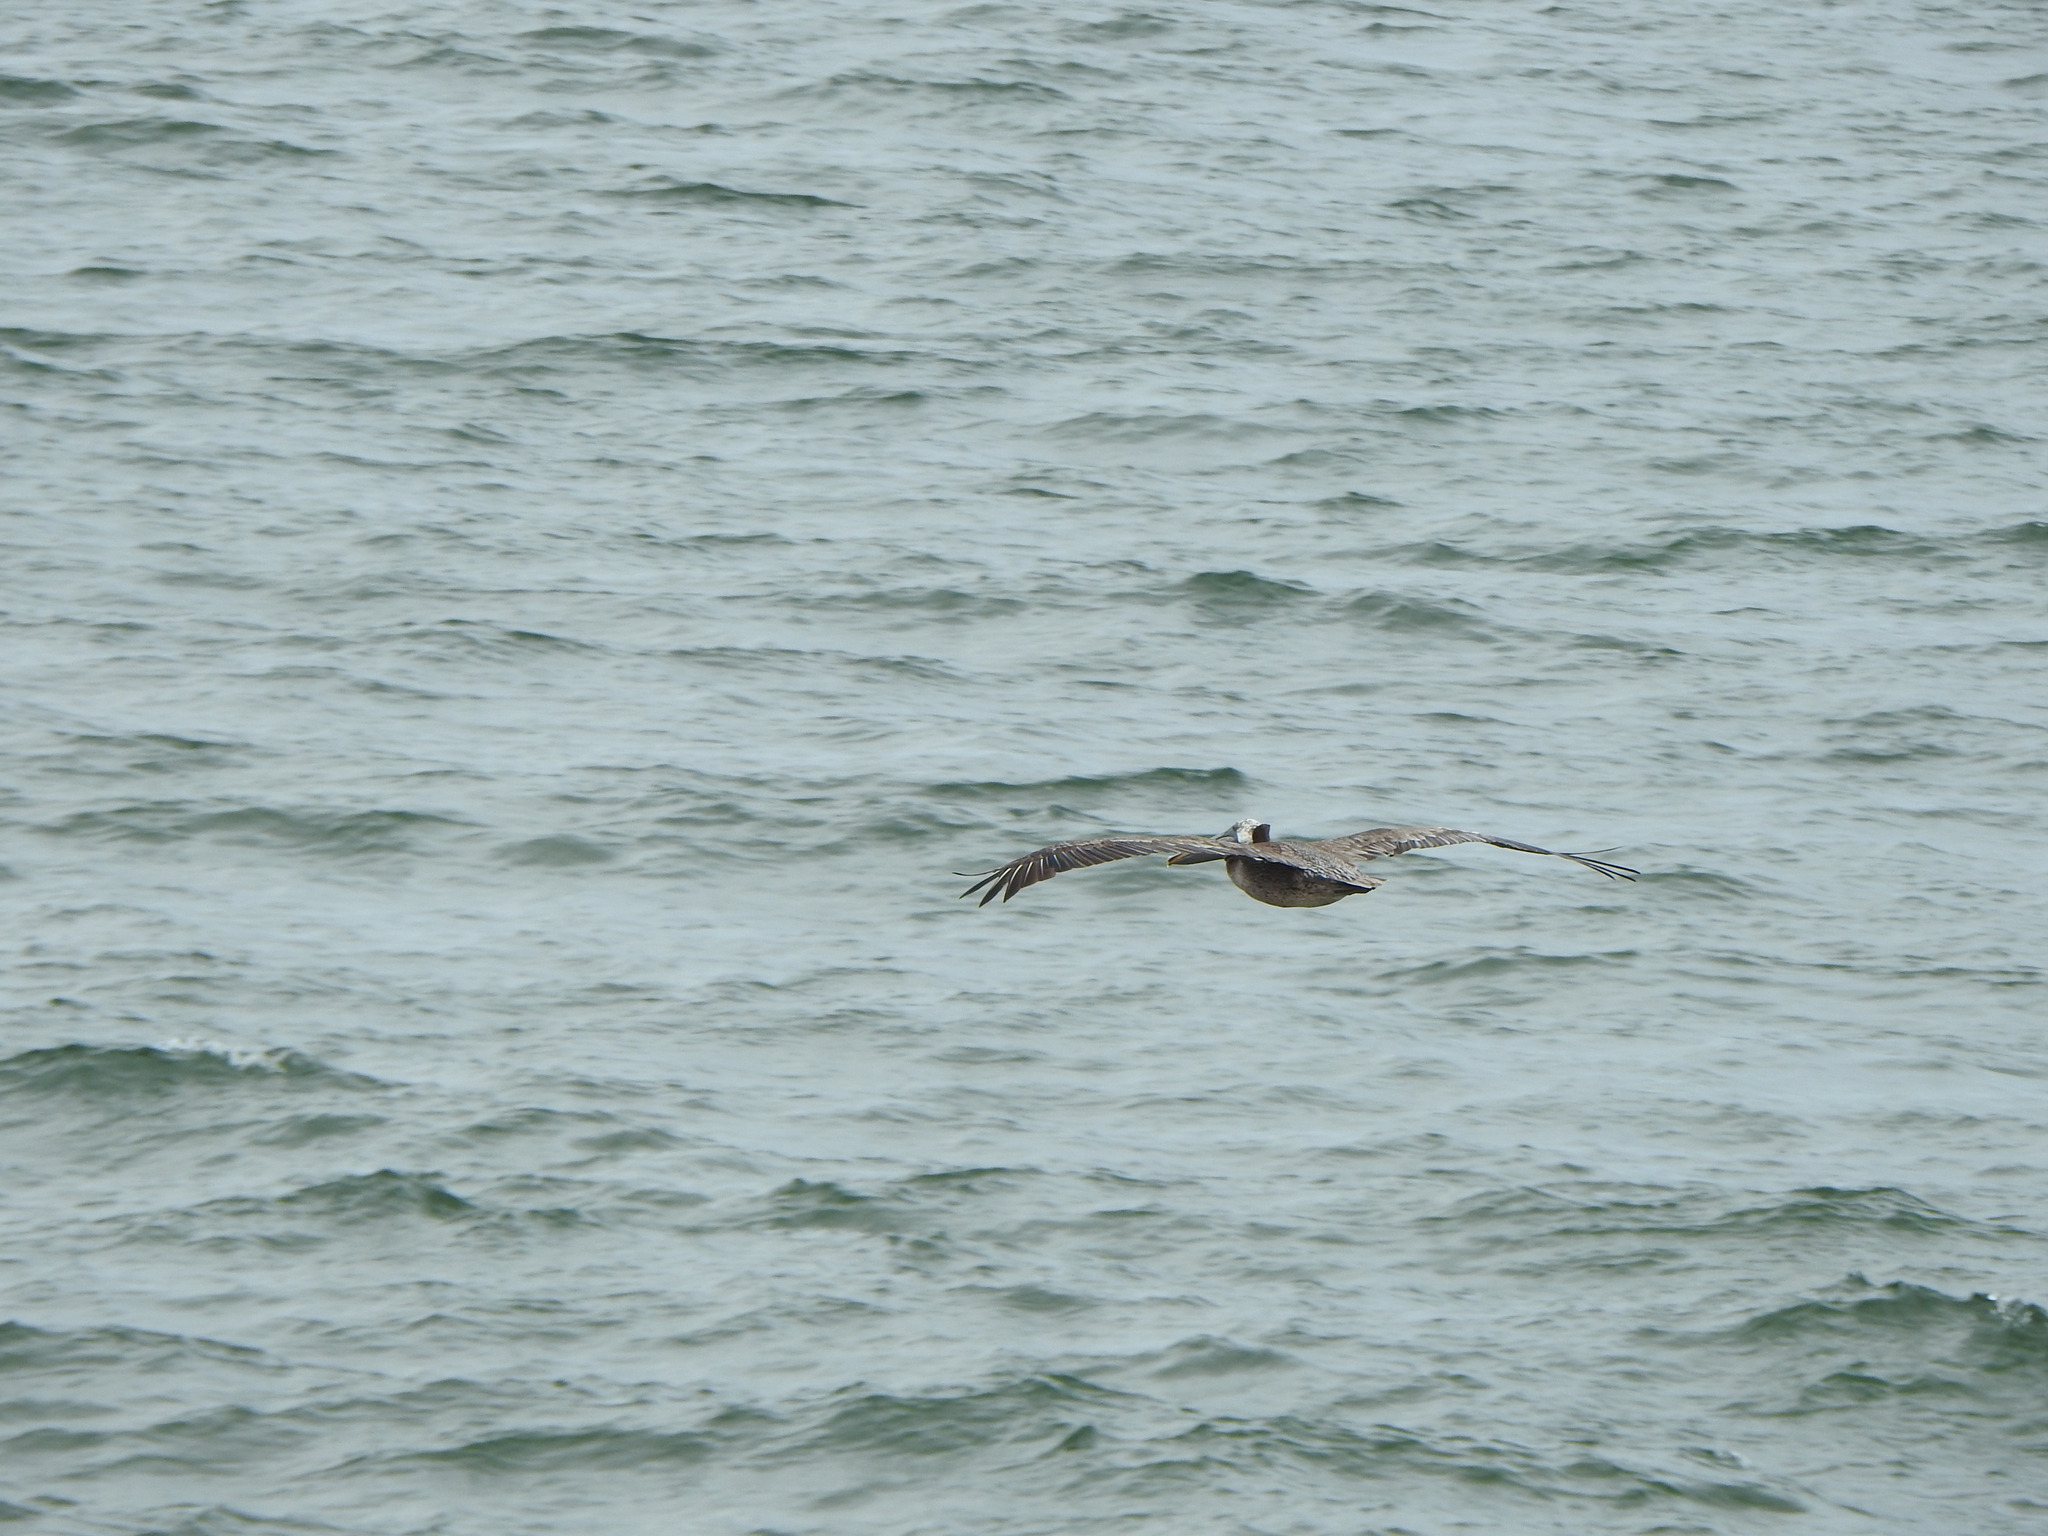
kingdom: Animalia
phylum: Chordata
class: Aves
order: Pelecaniformes
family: Pelecanidae
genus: Pelecanus
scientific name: Pelecanus occidentalis
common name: Brown pelican
